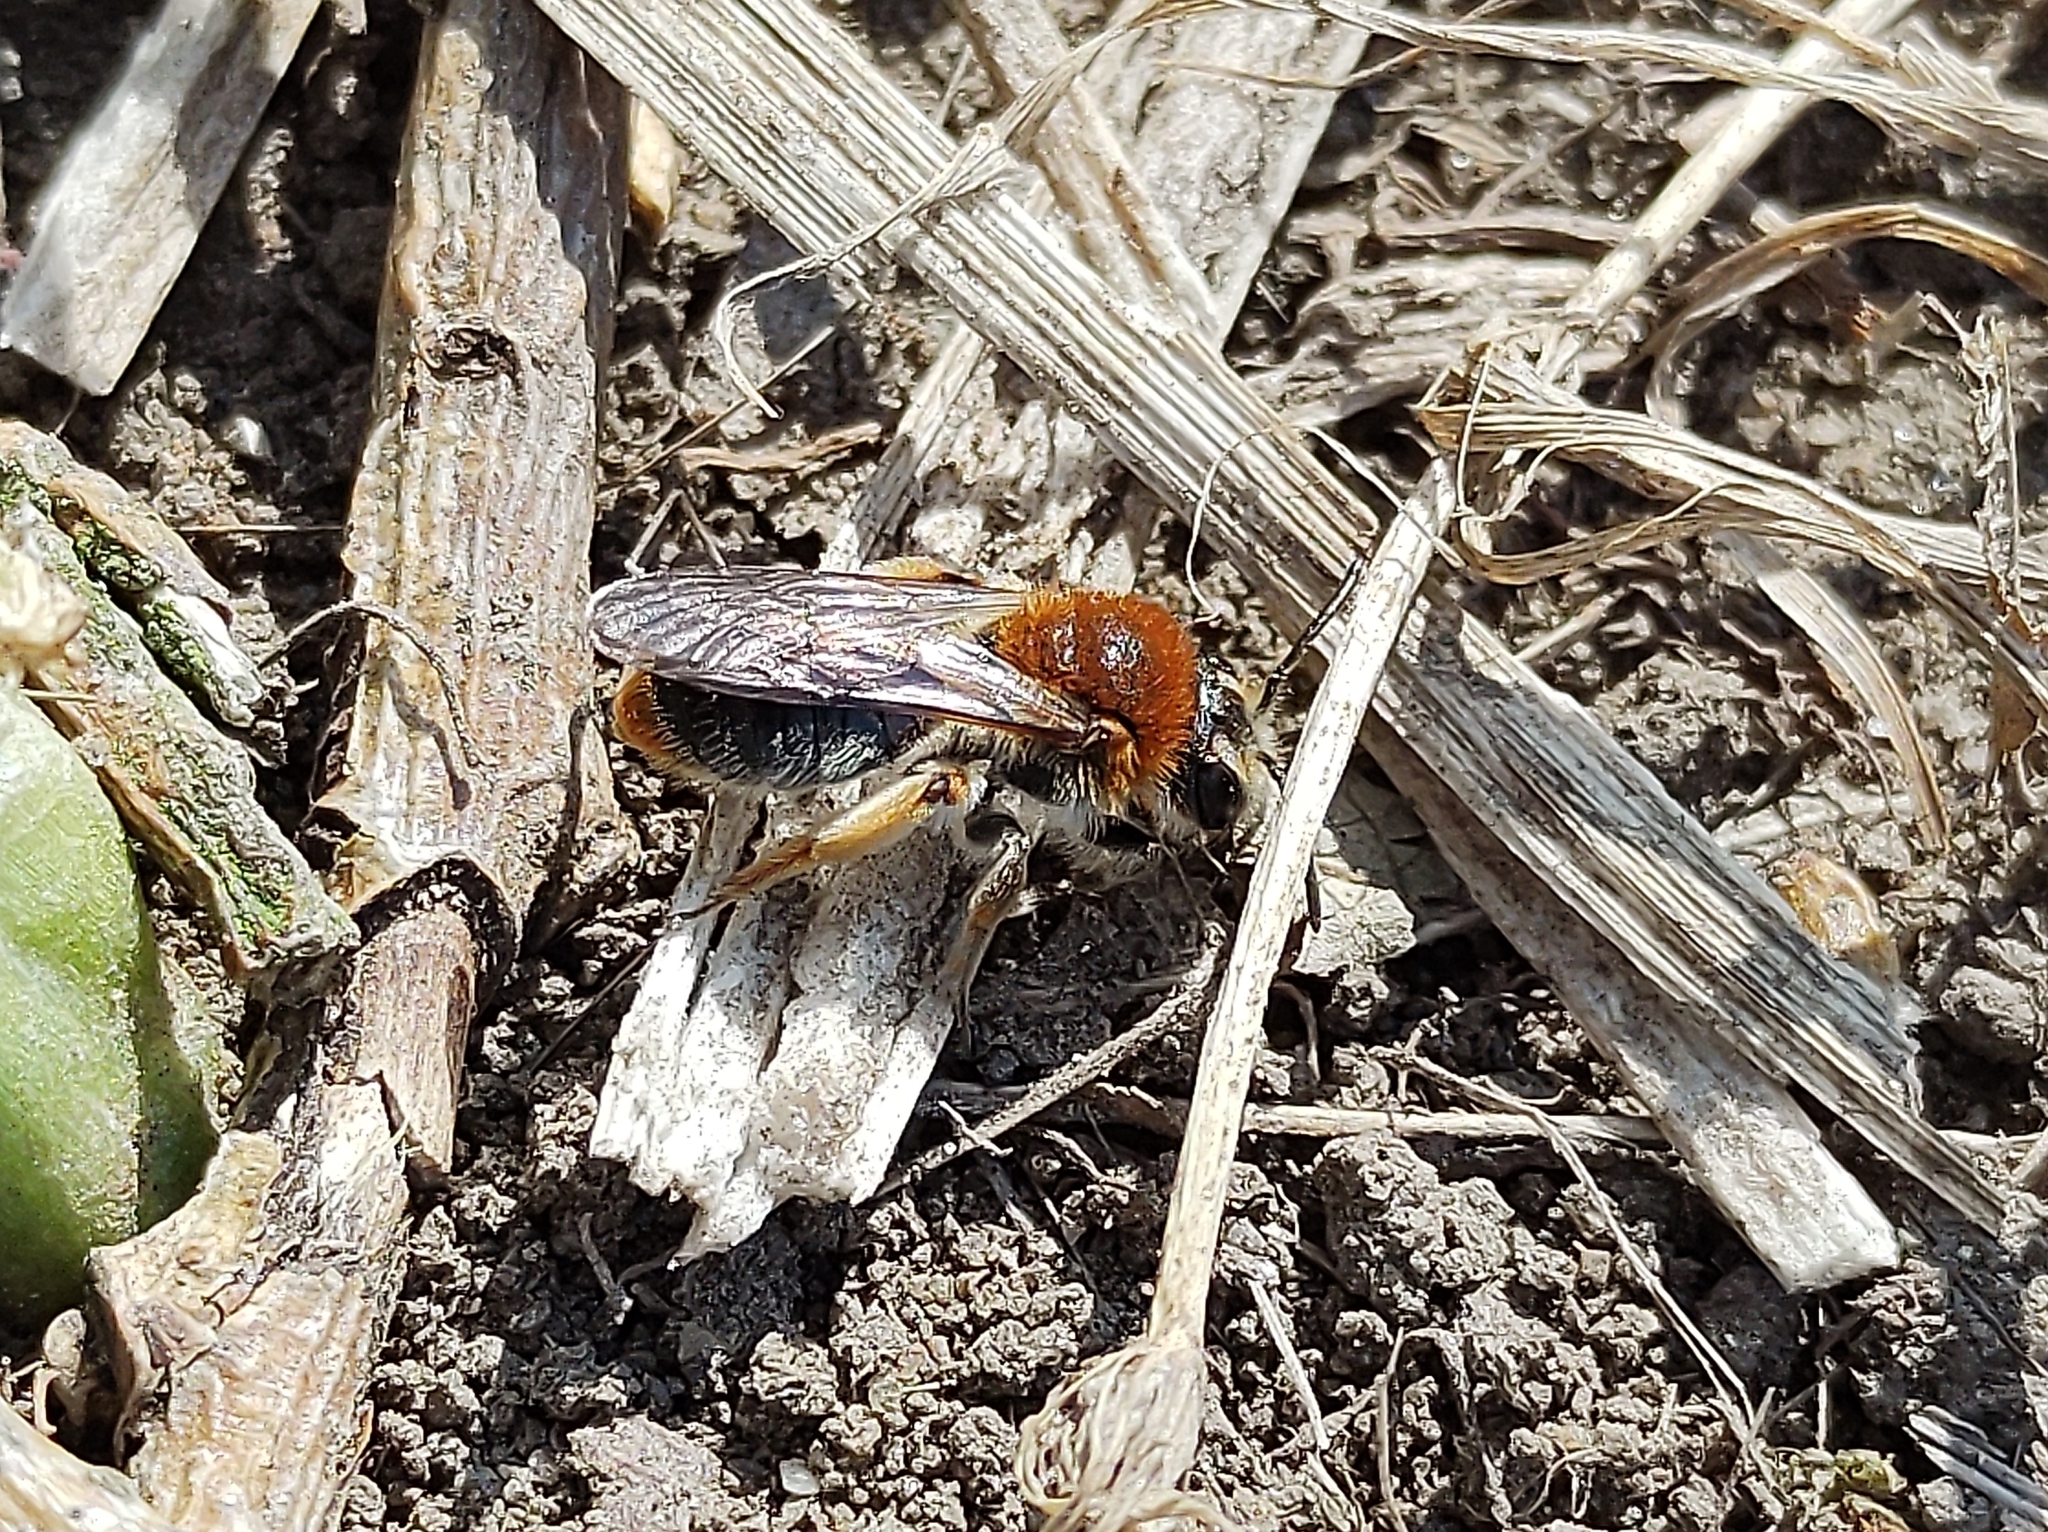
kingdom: Animalia
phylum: Arthropoda
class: Insecta
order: Hymenoptera
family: Andrenidae
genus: Andrena
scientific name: Andrena haemorrhoa
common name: Early mining bee
